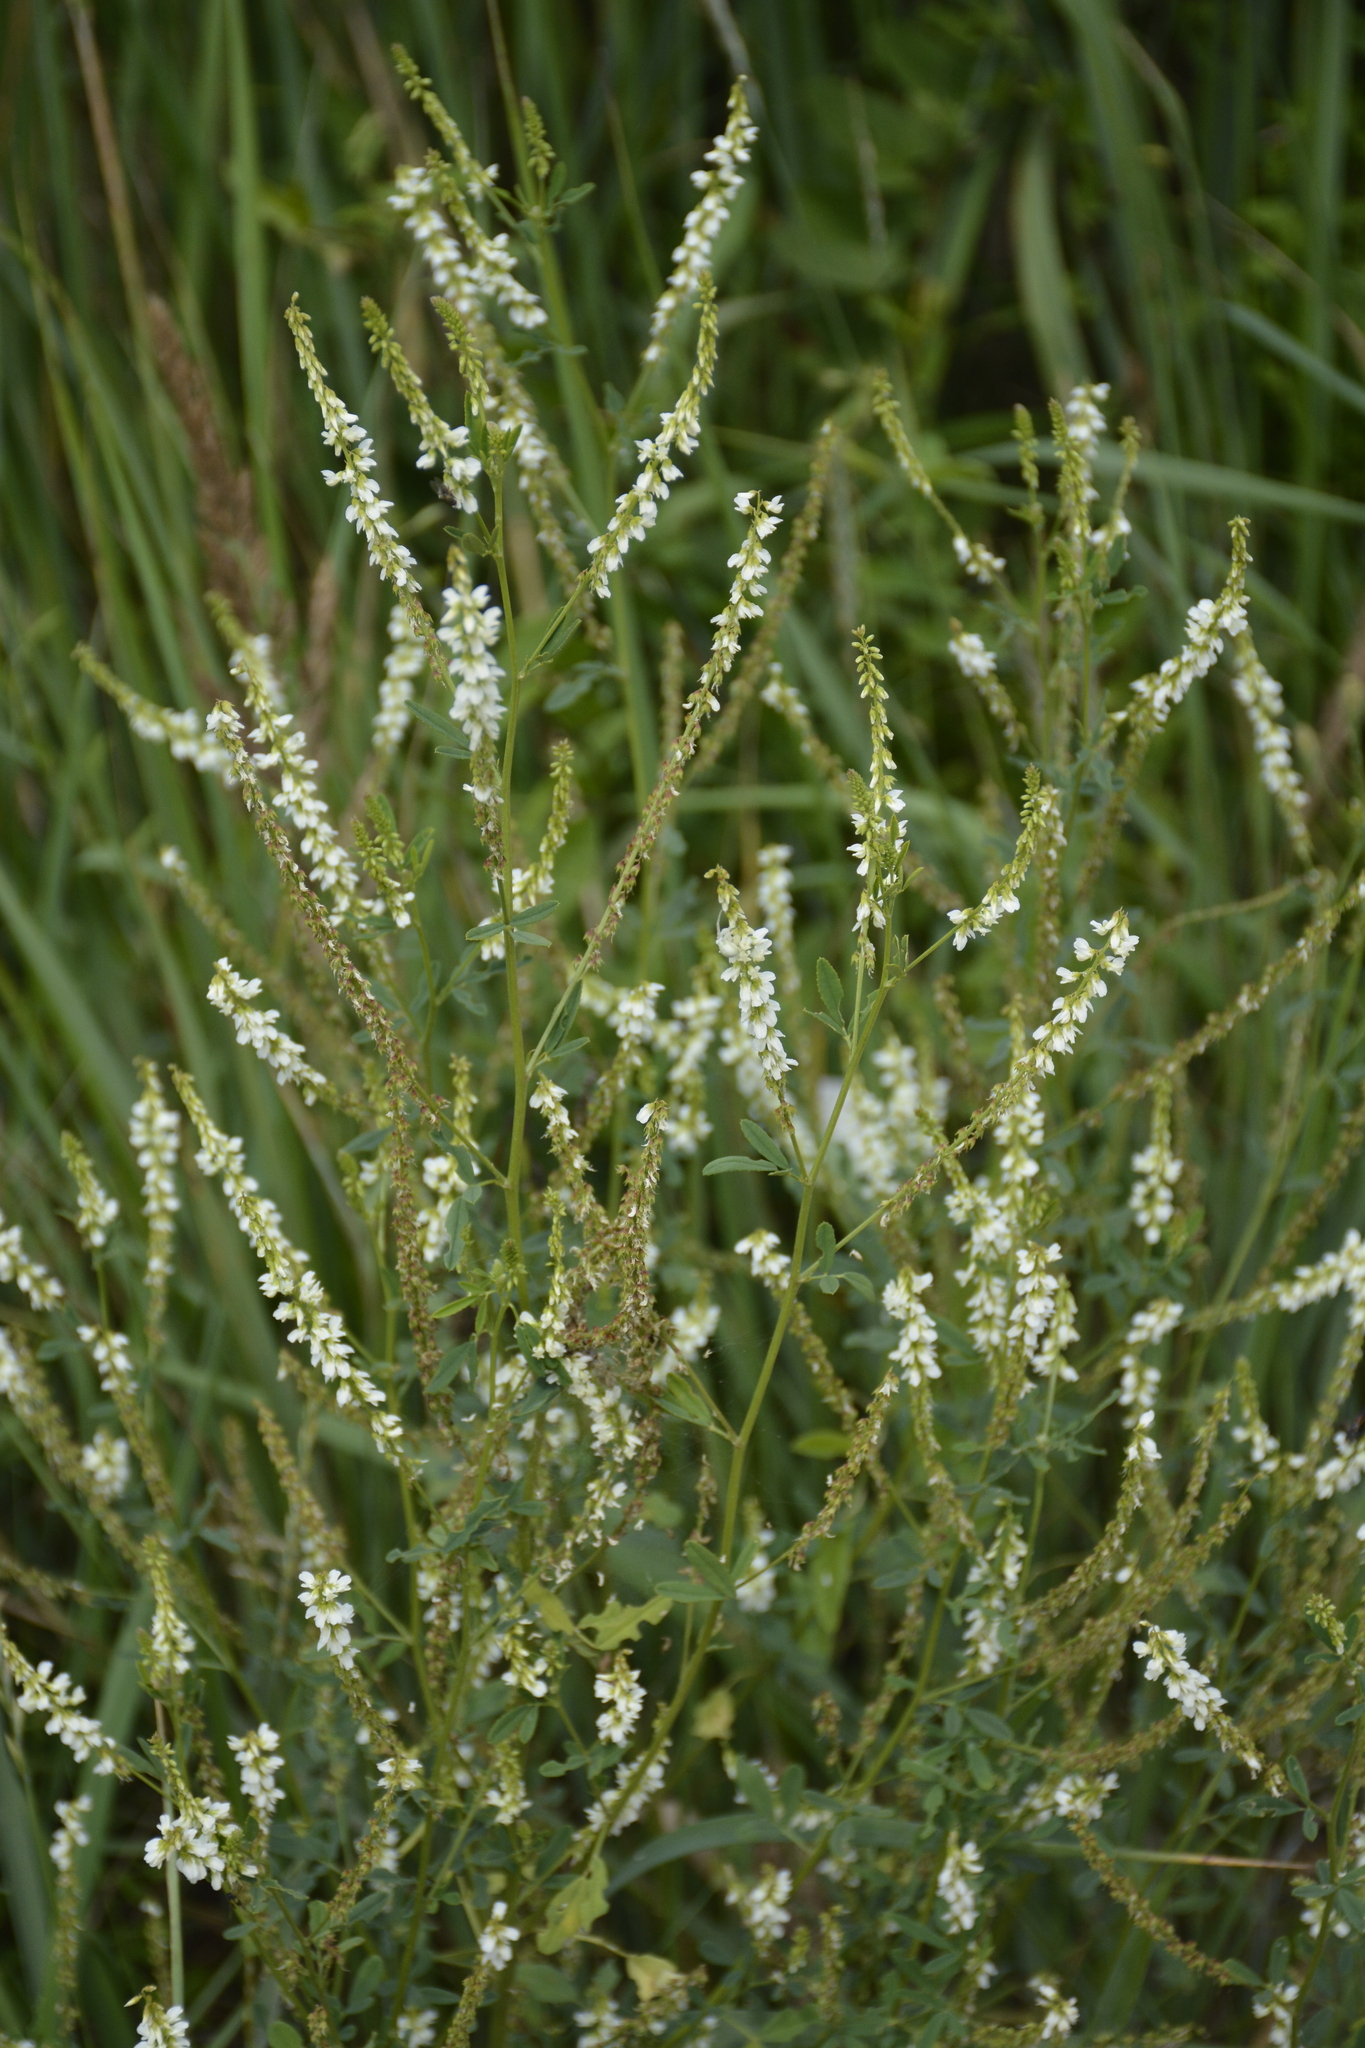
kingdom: Plantae
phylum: Tracheophyta
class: Magnoliopsida
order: Fabales
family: Fabaceae
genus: Melilotus
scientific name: Melilotus albus
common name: White melilot
